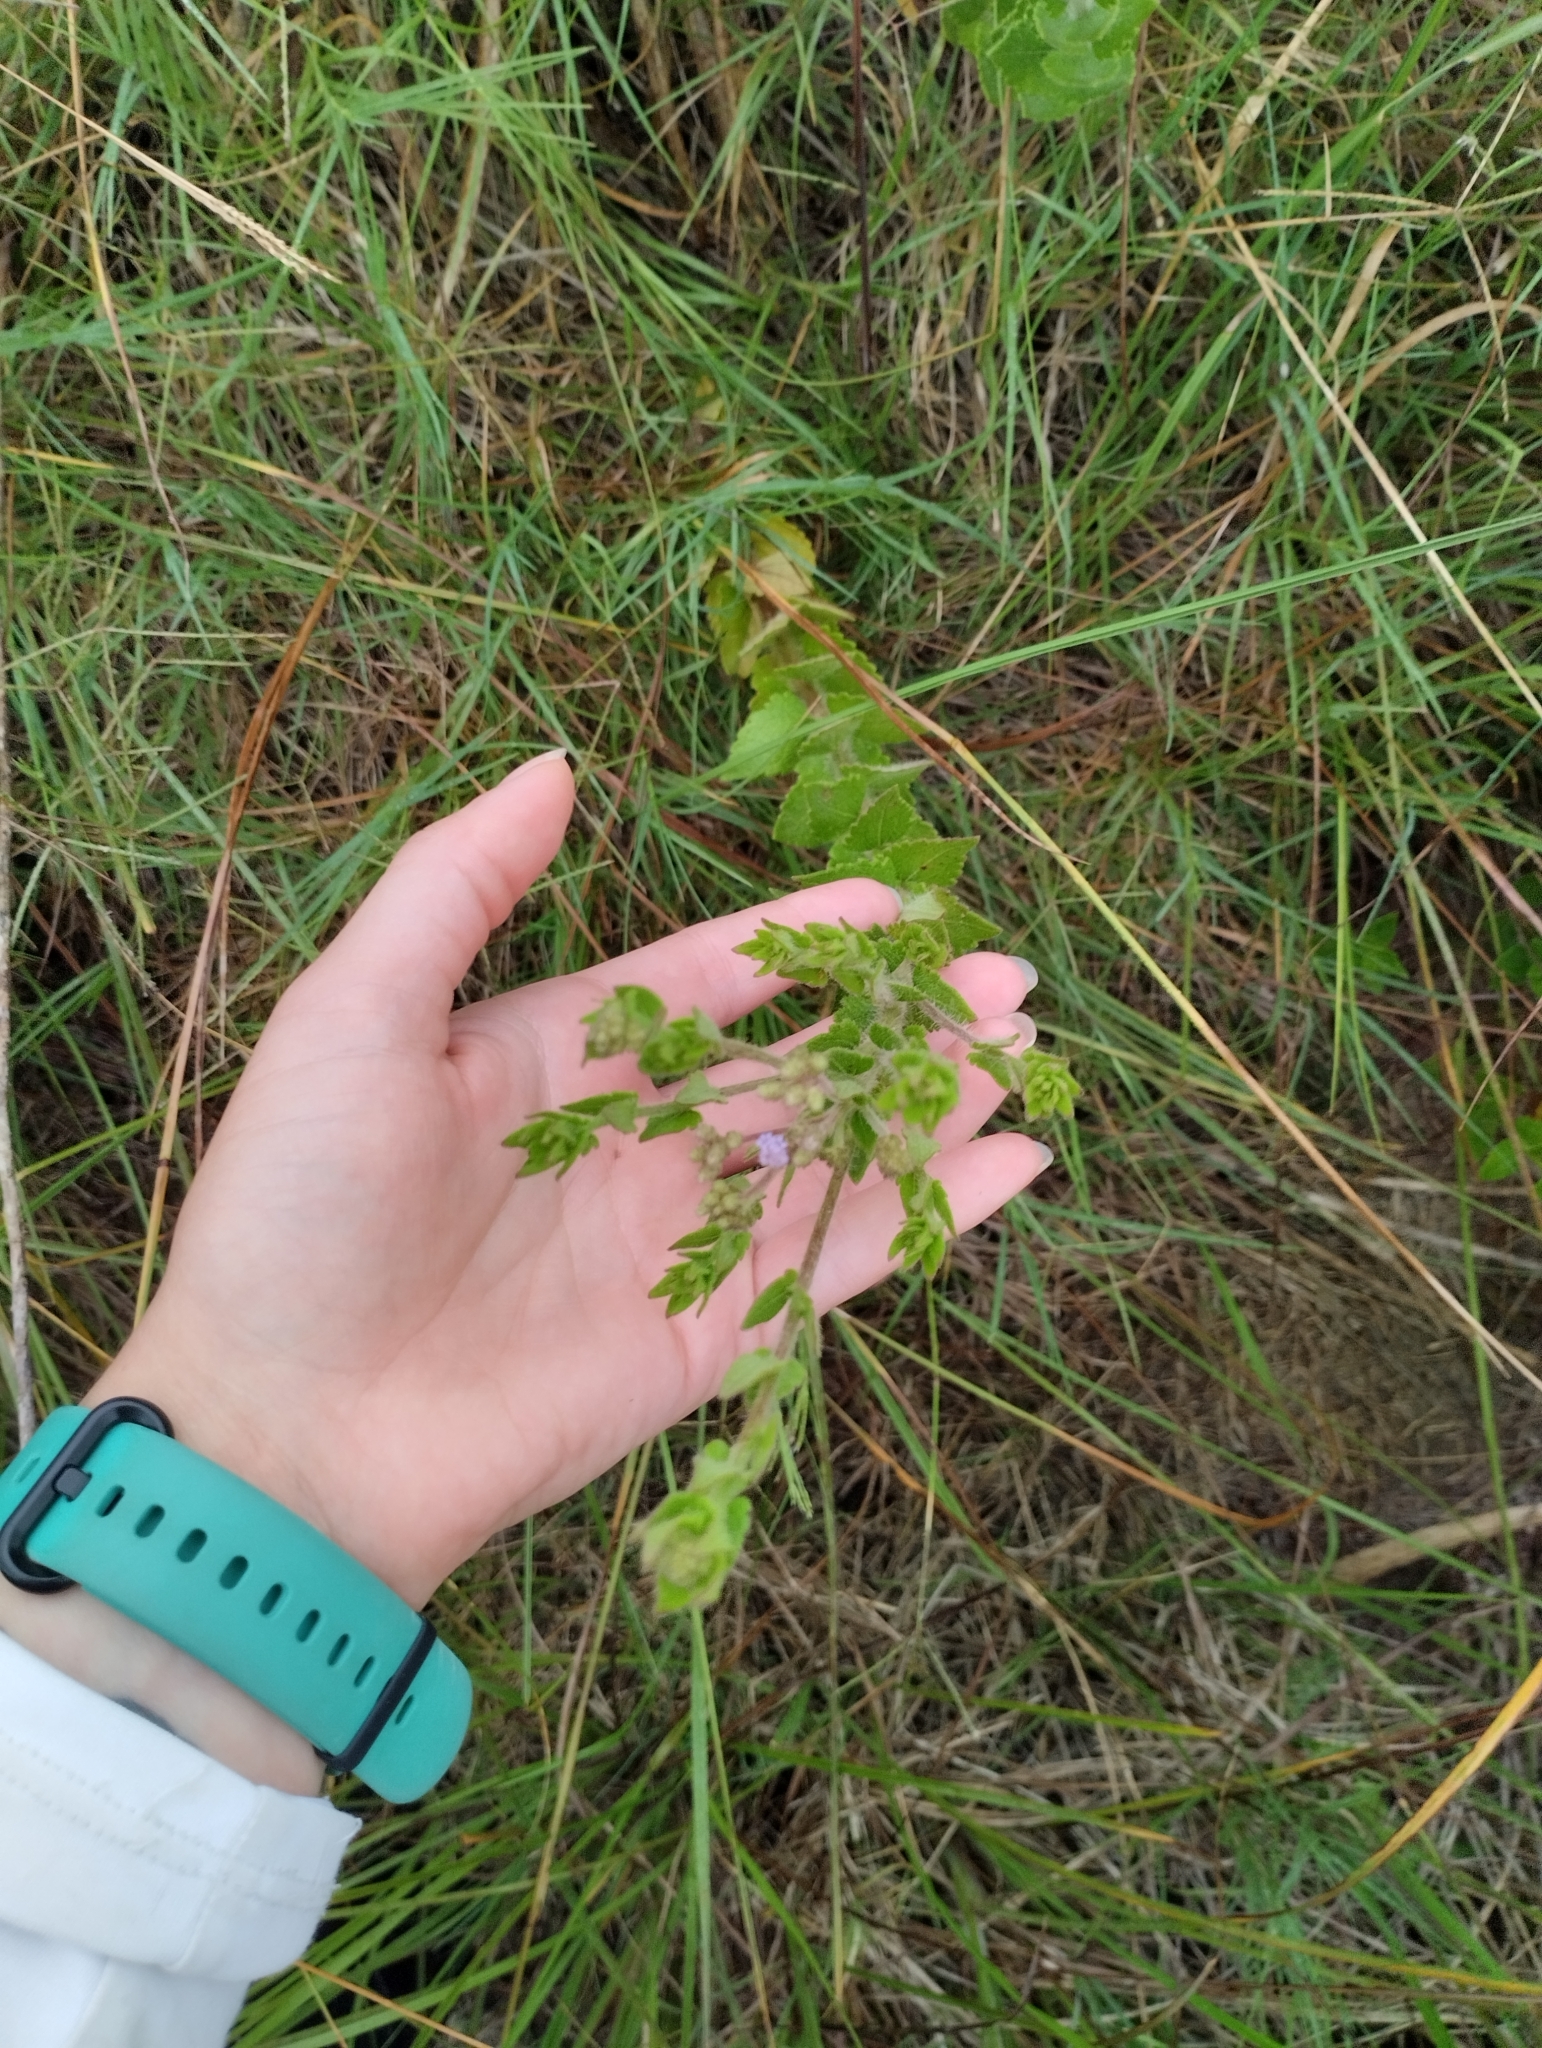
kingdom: Plantae
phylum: Tracheophyta
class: Magnoliopsida
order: Asterales
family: Asteraceae
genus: Chromolaena
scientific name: Chromolaena hirsuta
